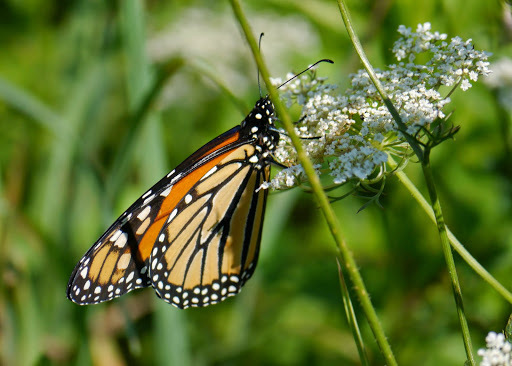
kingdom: Animalia
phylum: Arthropoda
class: Insecta
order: Lepidoptera
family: Nymphalidae
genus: Danaus
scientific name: Danaus plexippus
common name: Monarch
